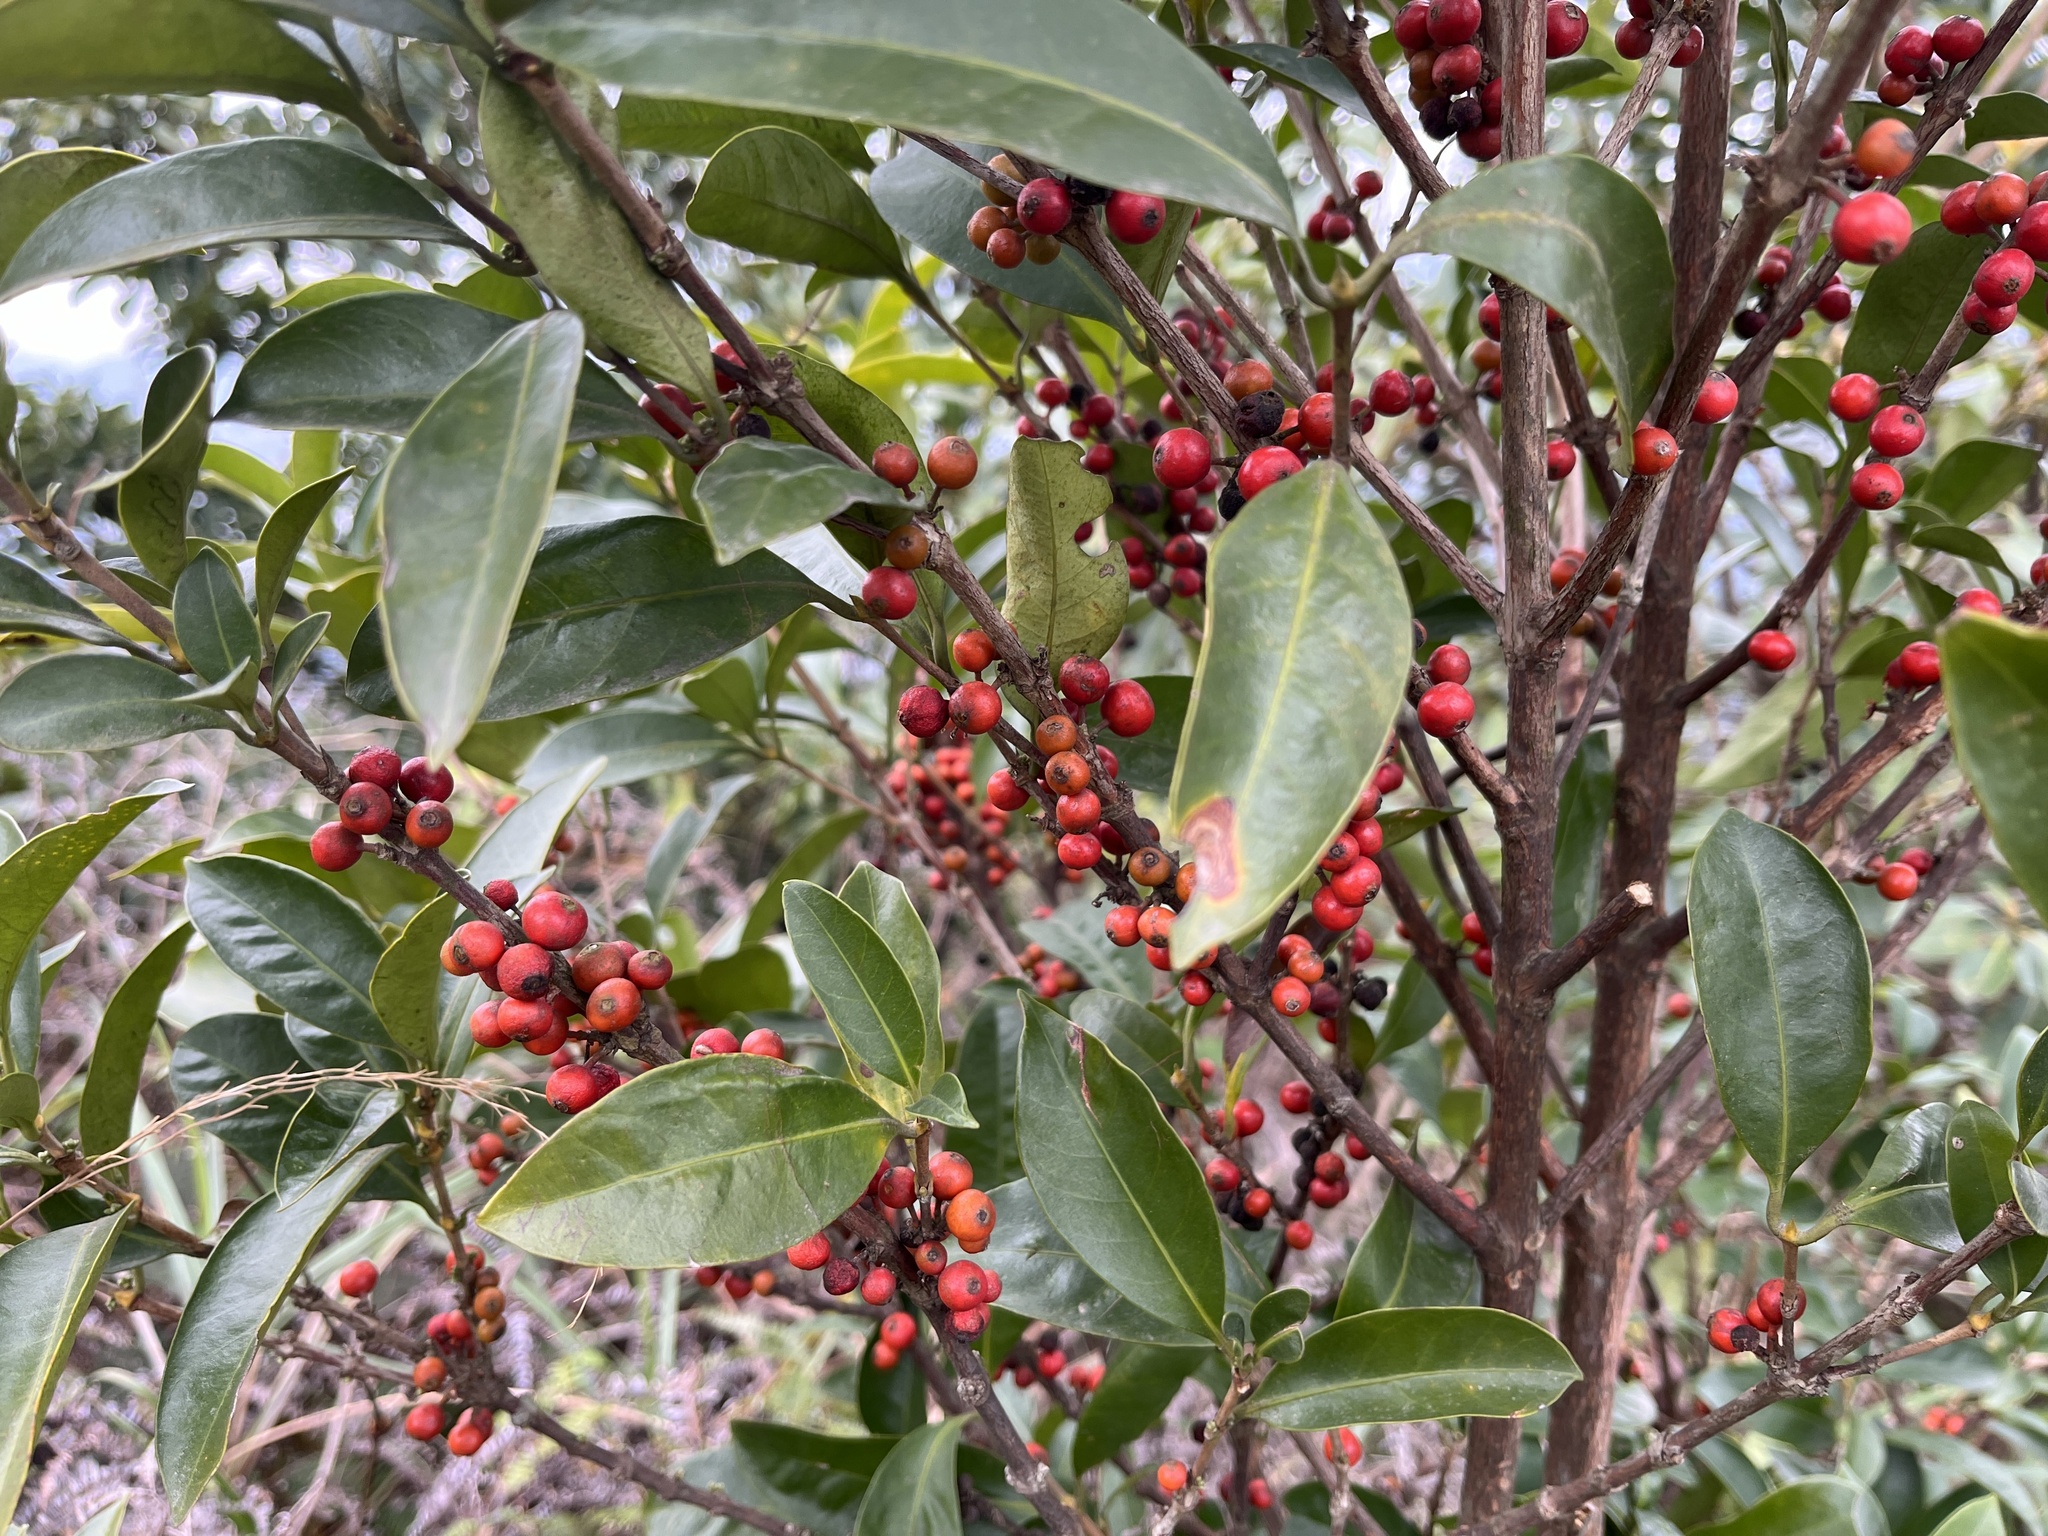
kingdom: Plantae
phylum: Tracheophyta
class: Magnoliopsida
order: Gentianales
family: Rubiaceae
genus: Diplospora
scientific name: Diplospora dubia
